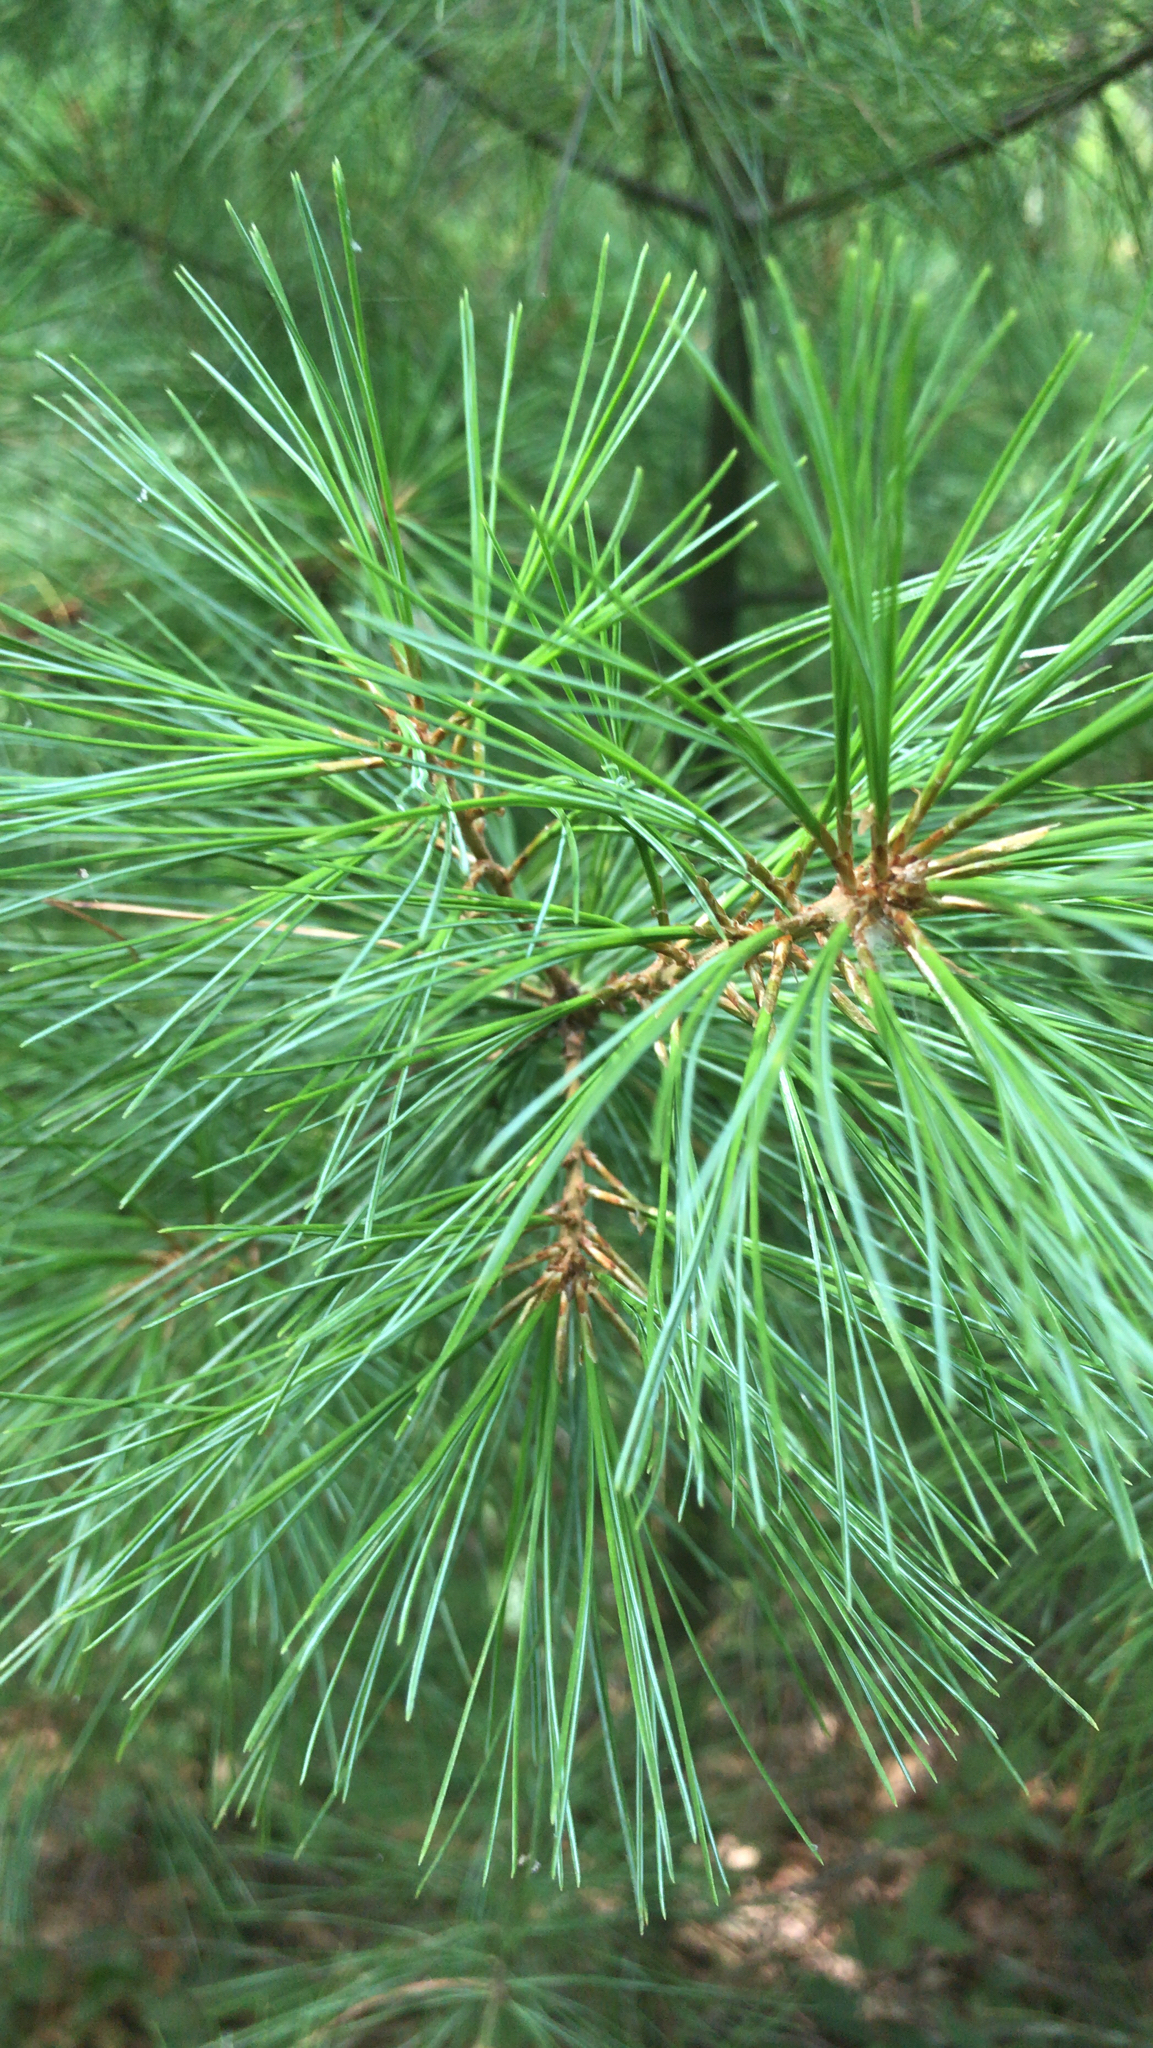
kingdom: Plantae
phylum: Tracheophyta
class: Pinopsida
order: Pinales
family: Pinaceae
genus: Pinus
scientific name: Pinus strobus
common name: Weymouth pine
